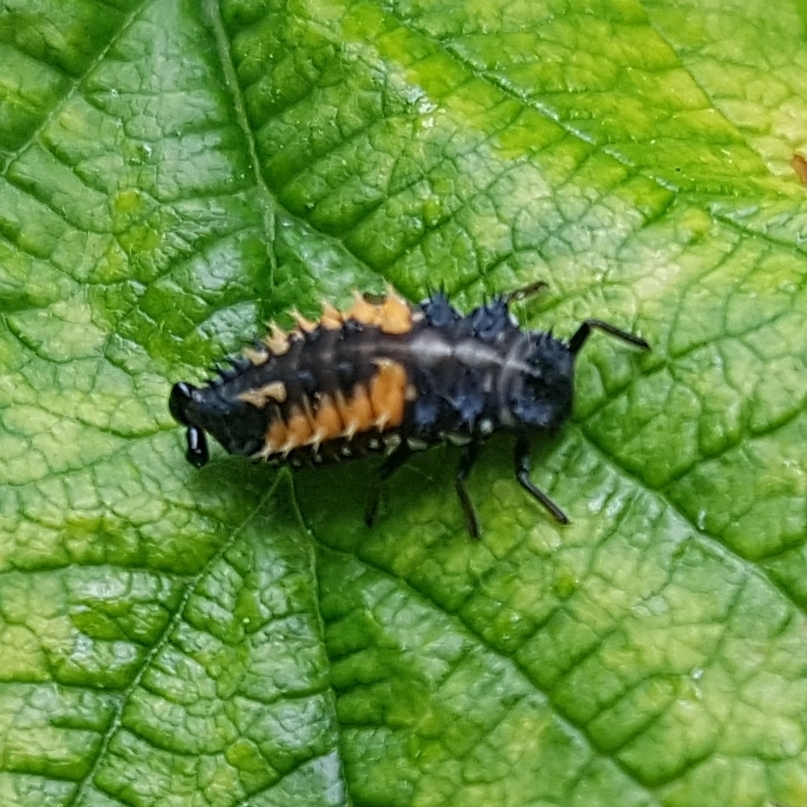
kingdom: Animalia
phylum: Arthropoda
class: Insecta
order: Coleoptera
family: Coccinellidae
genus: Harmonia
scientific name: Harmonia axyridis
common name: Harlequin ladybird
